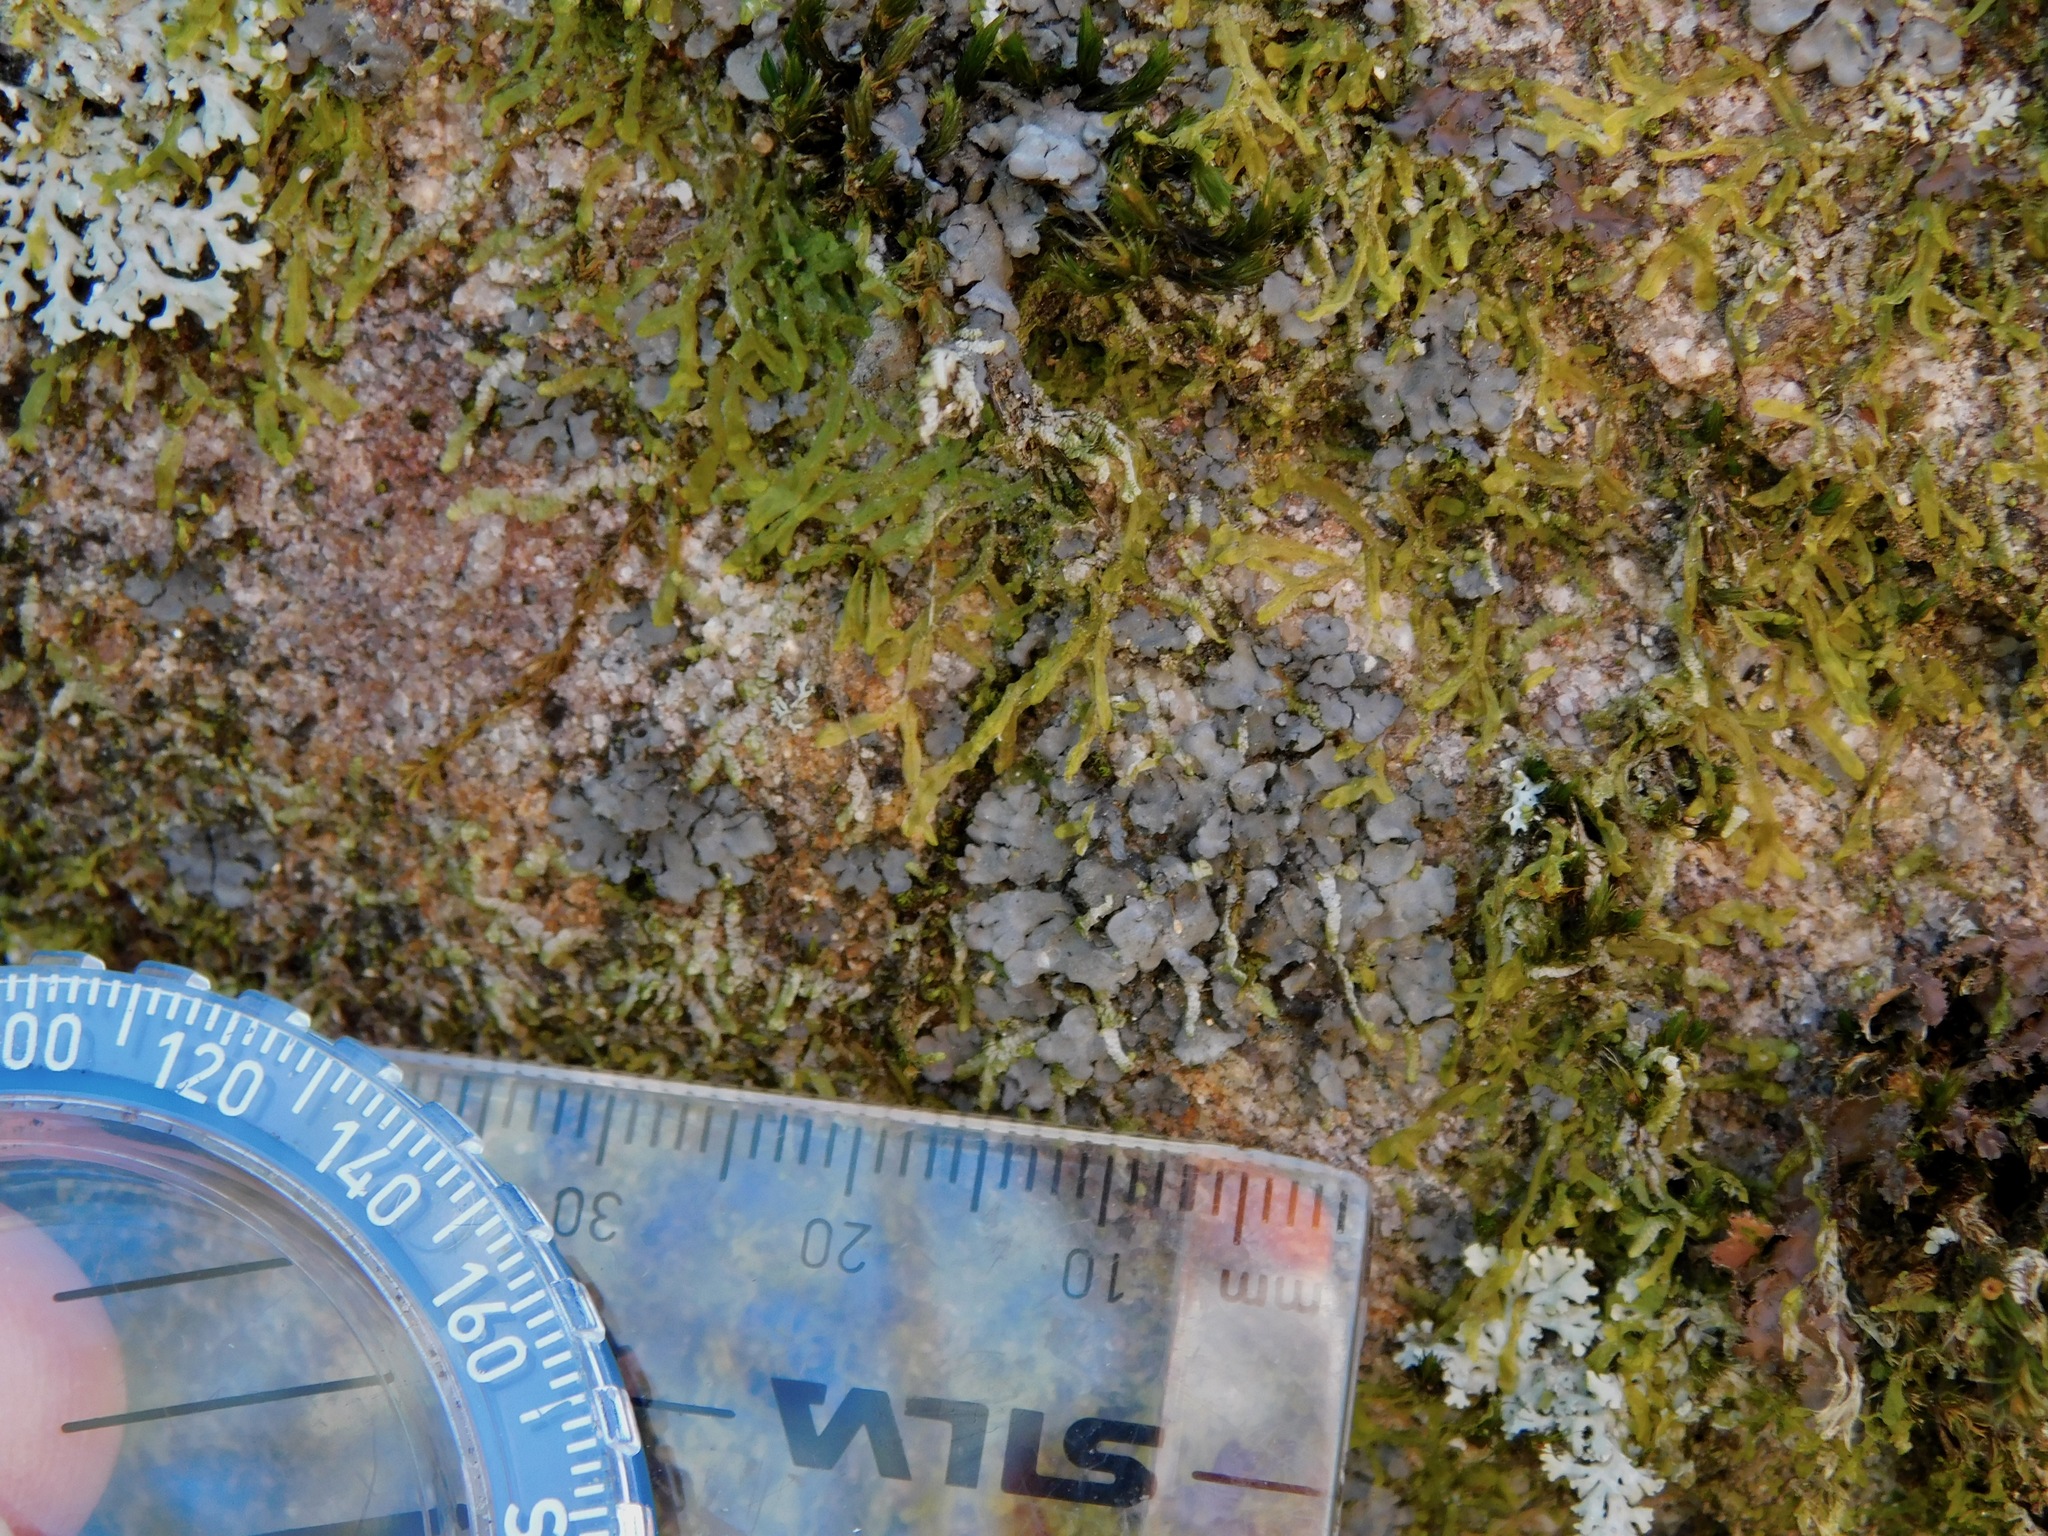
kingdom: Fungi
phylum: Ascomycota
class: Lecanoromycetes
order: Peltigerales
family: Coccocarpiaceae
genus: Coccocarpia
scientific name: Coccocarpia palmicola
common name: Salted shell lichen
